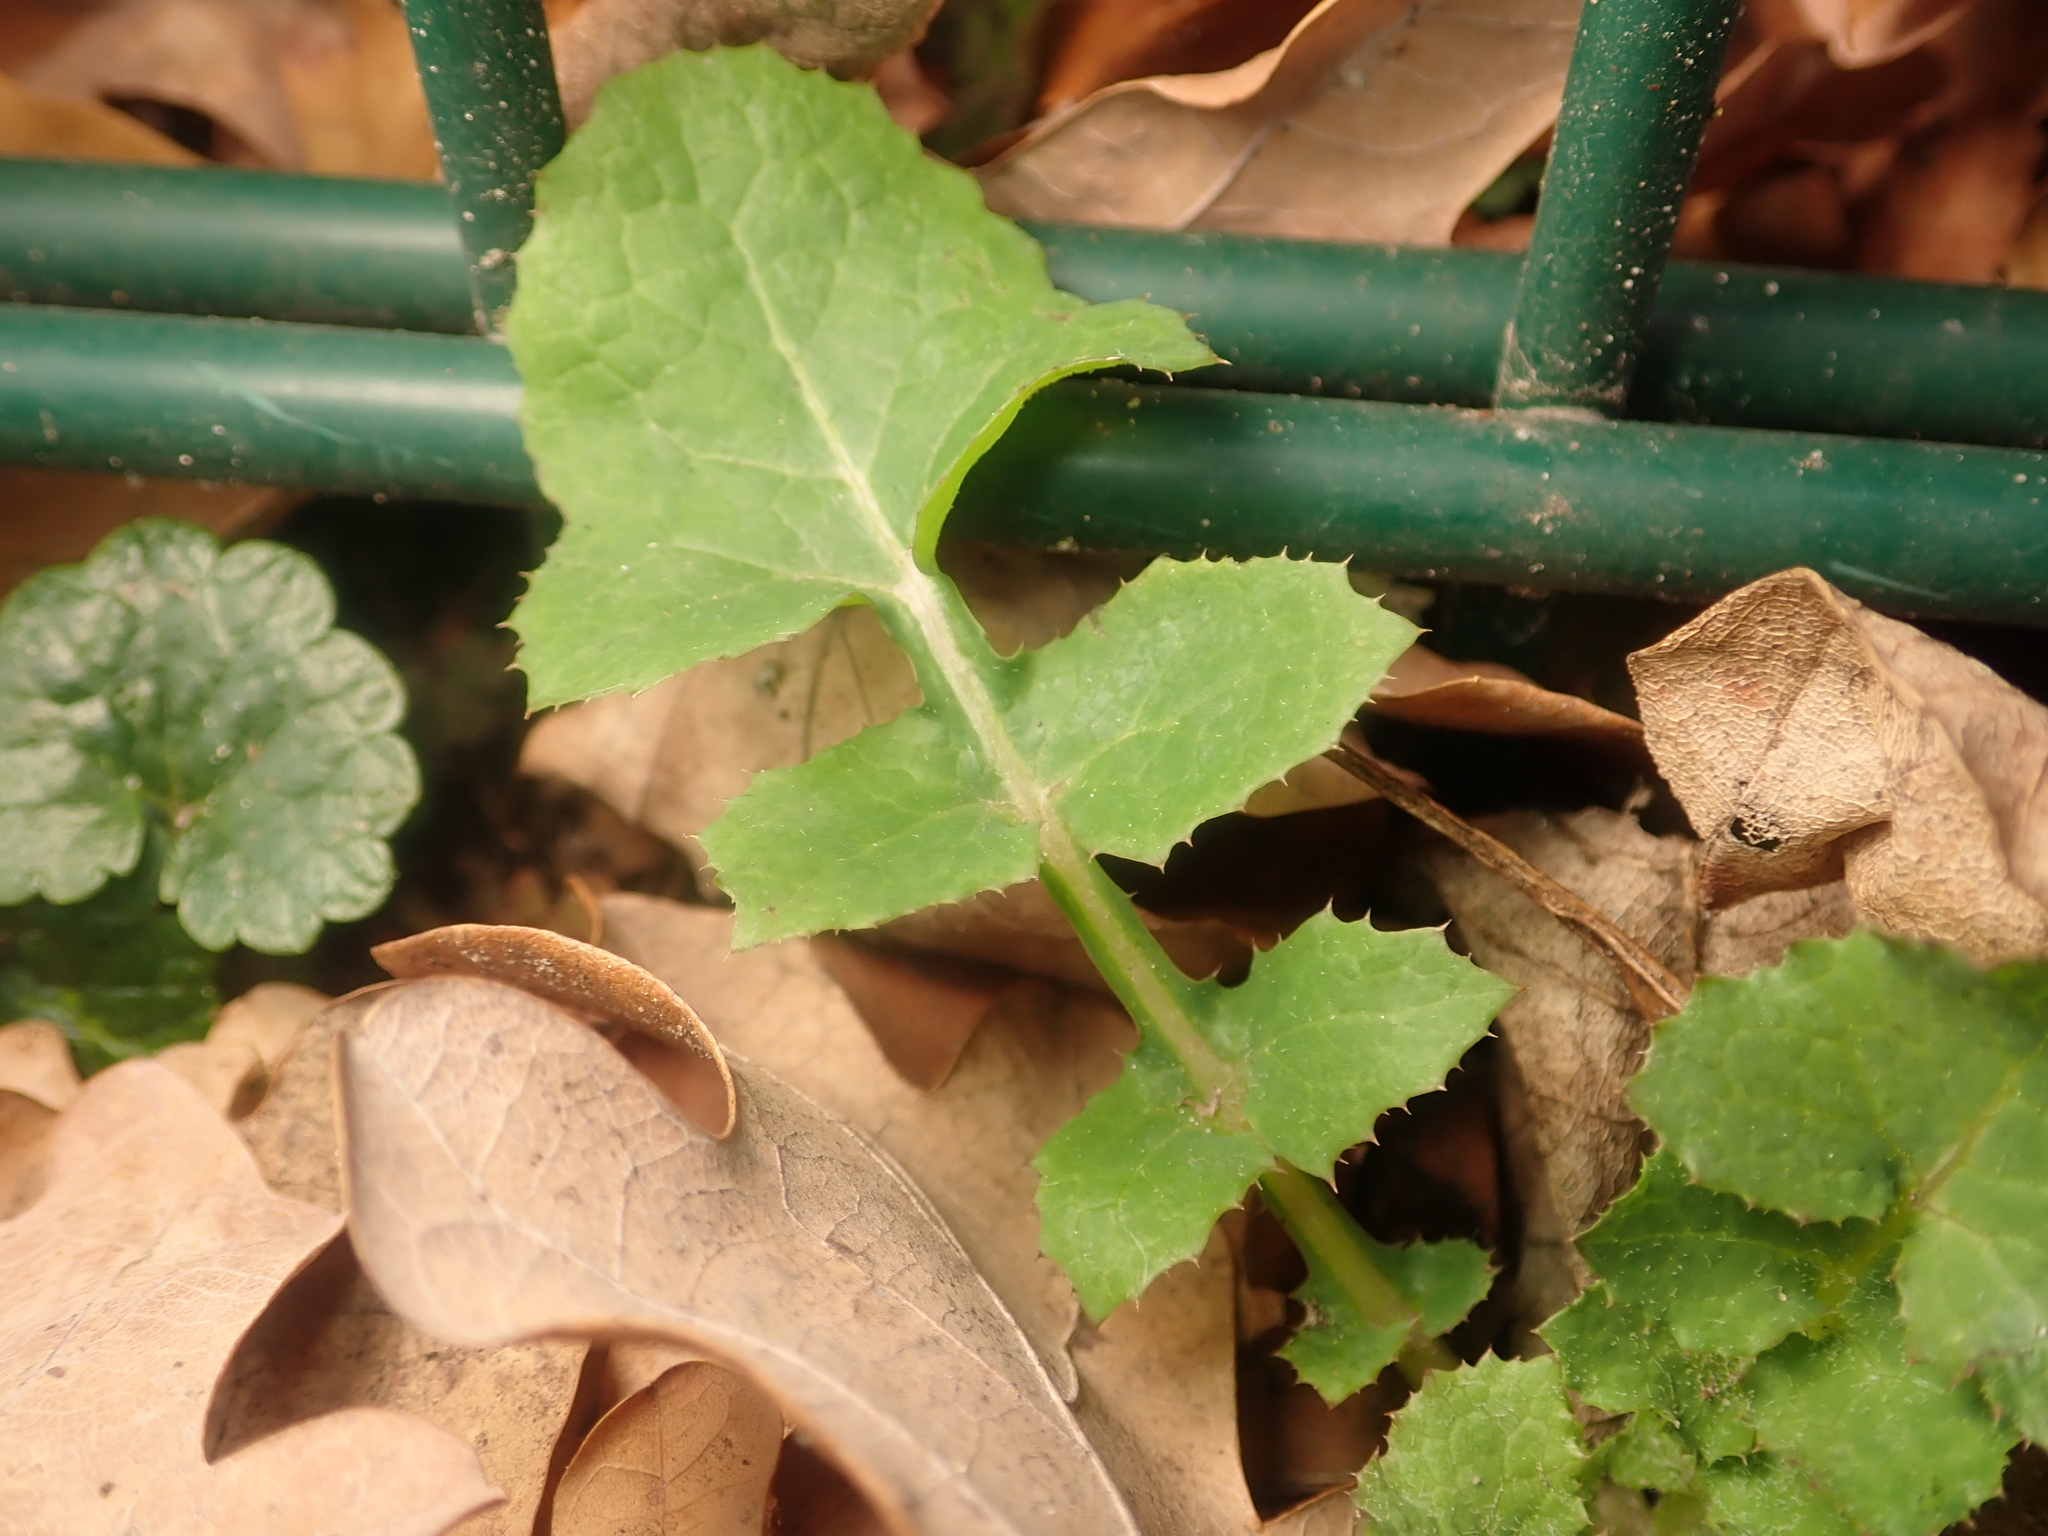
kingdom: Plantae
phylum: Tracheophyta
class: Magnoliopsida
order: Asterales
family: Asteraceae
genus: Sonchus
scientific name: Sonchus oleraceus
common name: Common sowthistle
